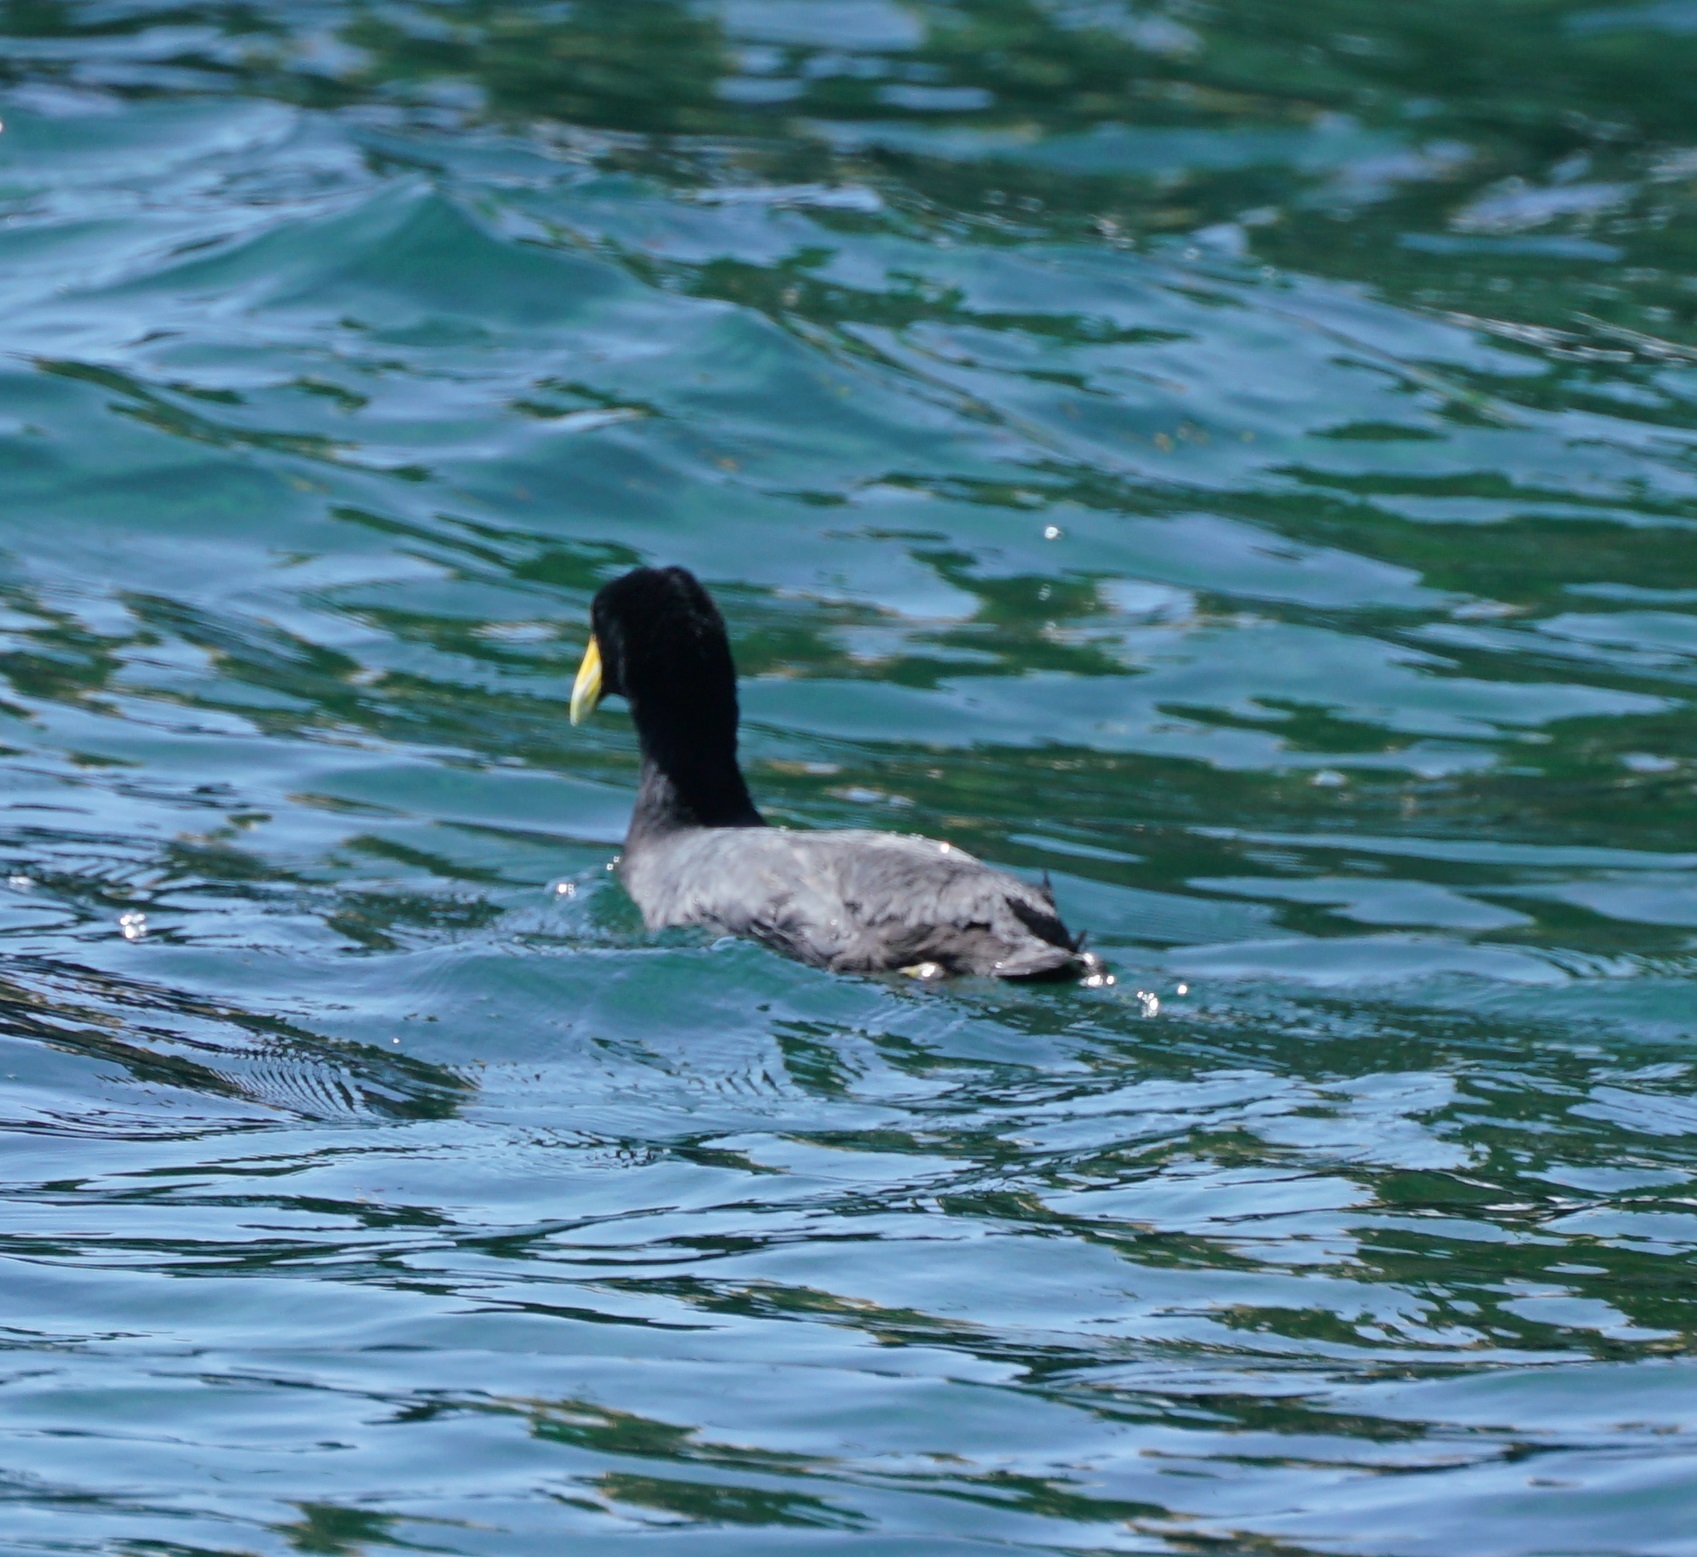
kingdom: Animalia
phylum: Chordata
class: Aves
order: Gruiformes
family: Rallidae
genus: Fulica
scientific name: Fulica ardesiaca
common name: Andean coot
